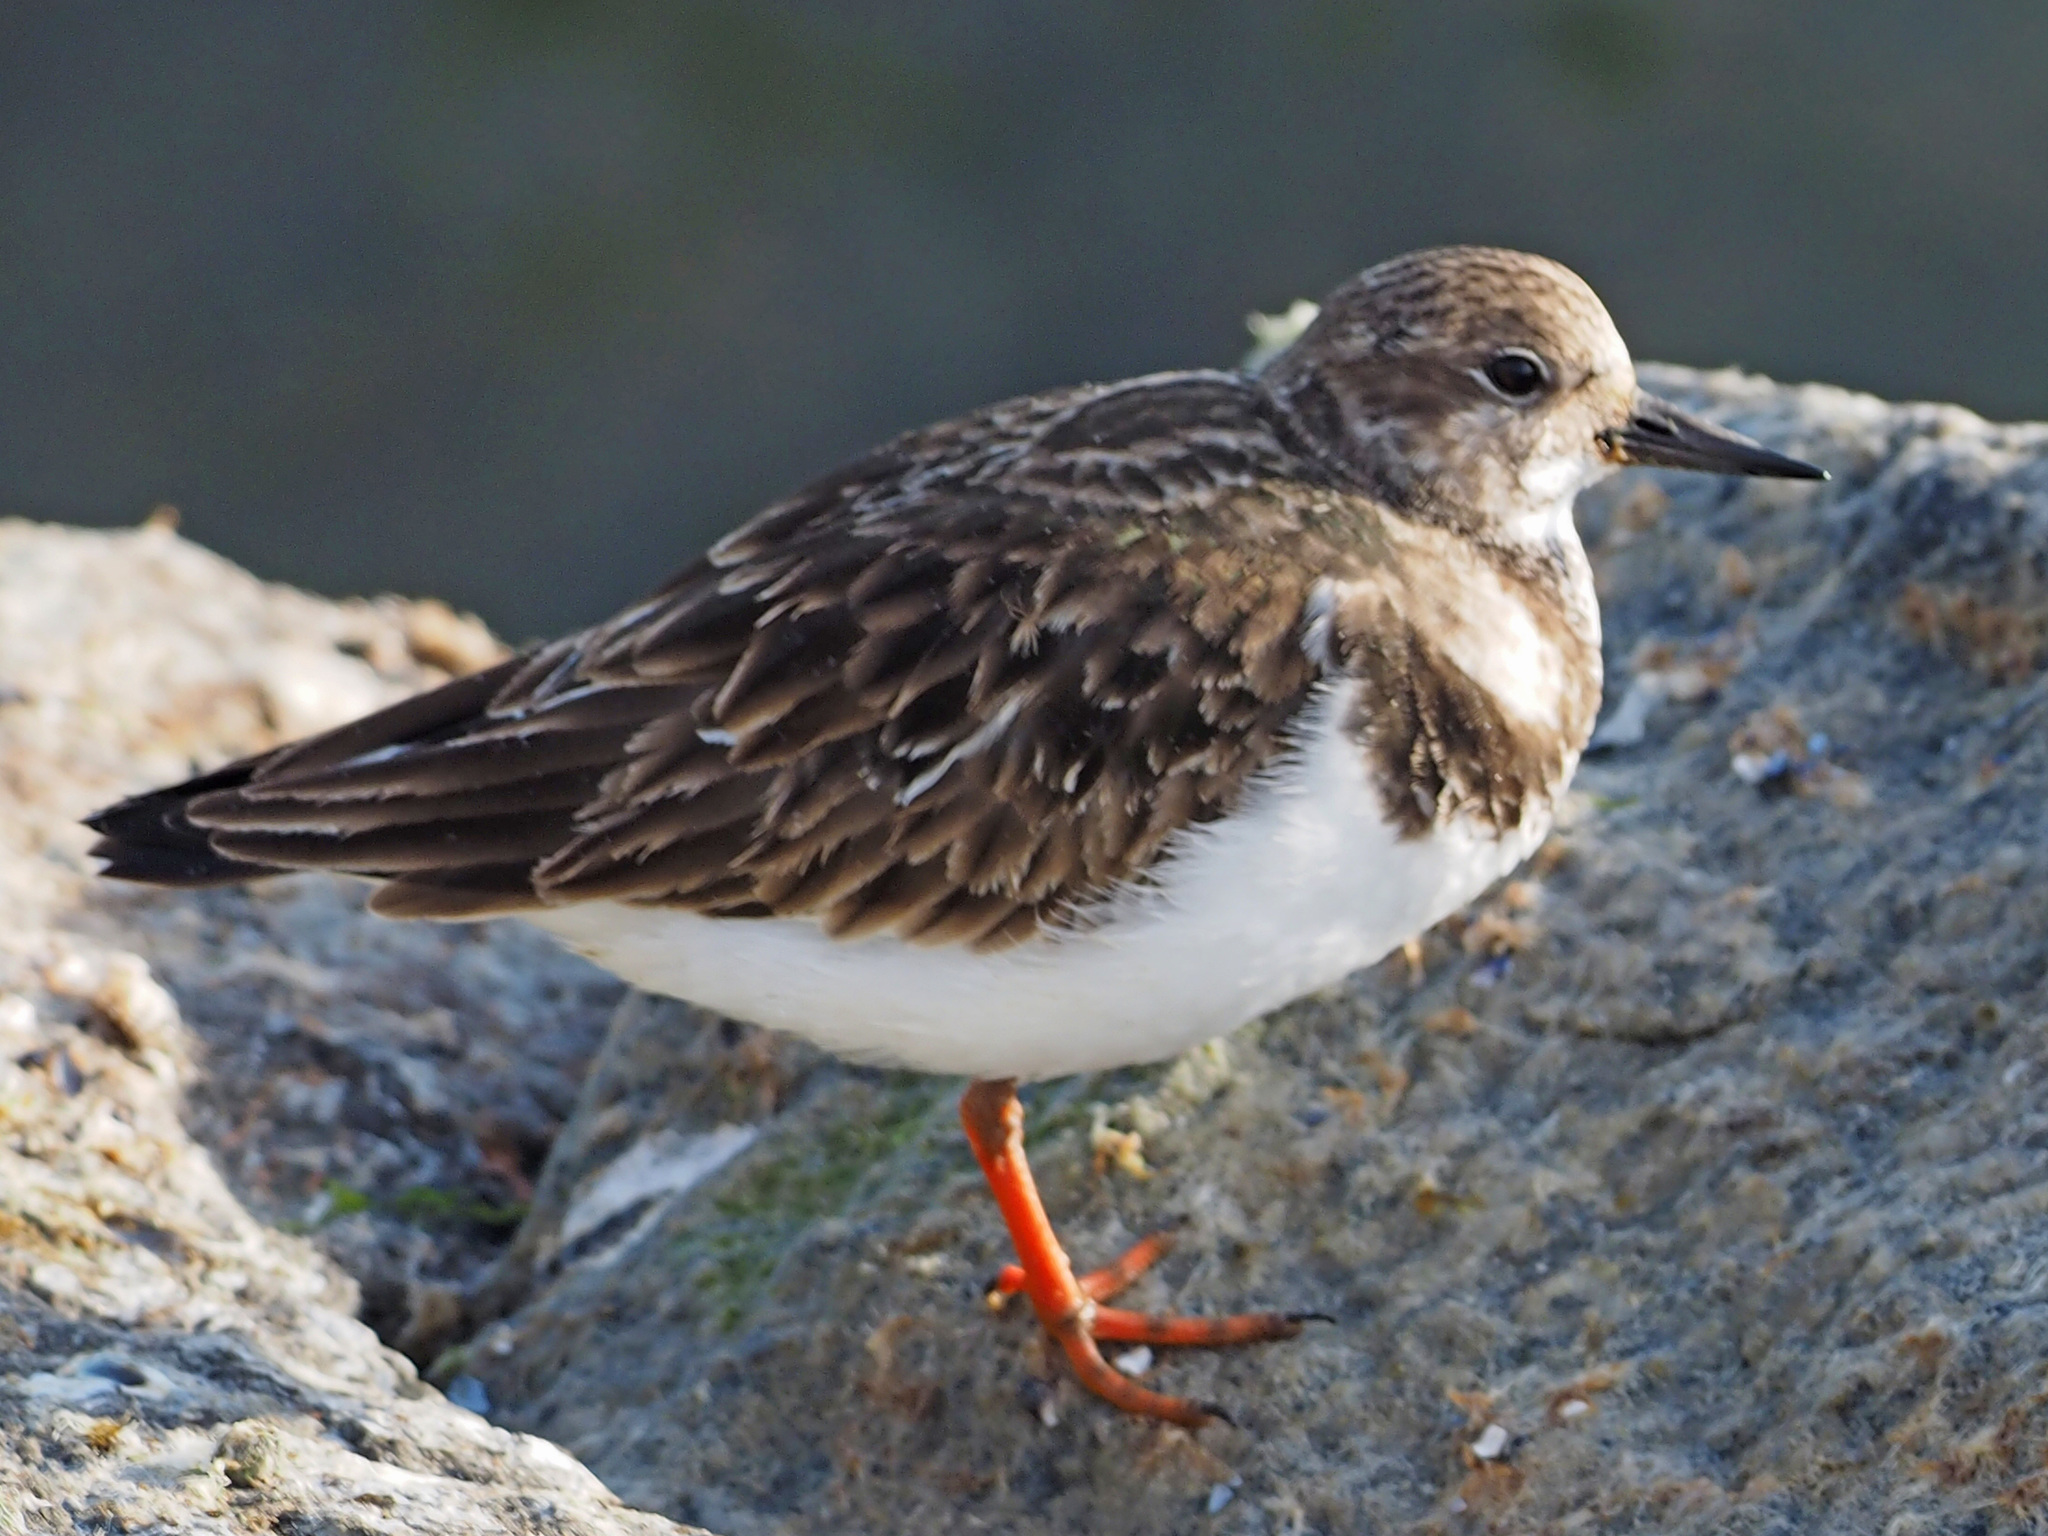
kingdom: Animalia
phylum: Chordata
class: Aves
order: Charadriiformes
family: Scolopacidae
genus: Arenaria
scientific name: Arenaria interpres
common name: Ruddy turnstone
